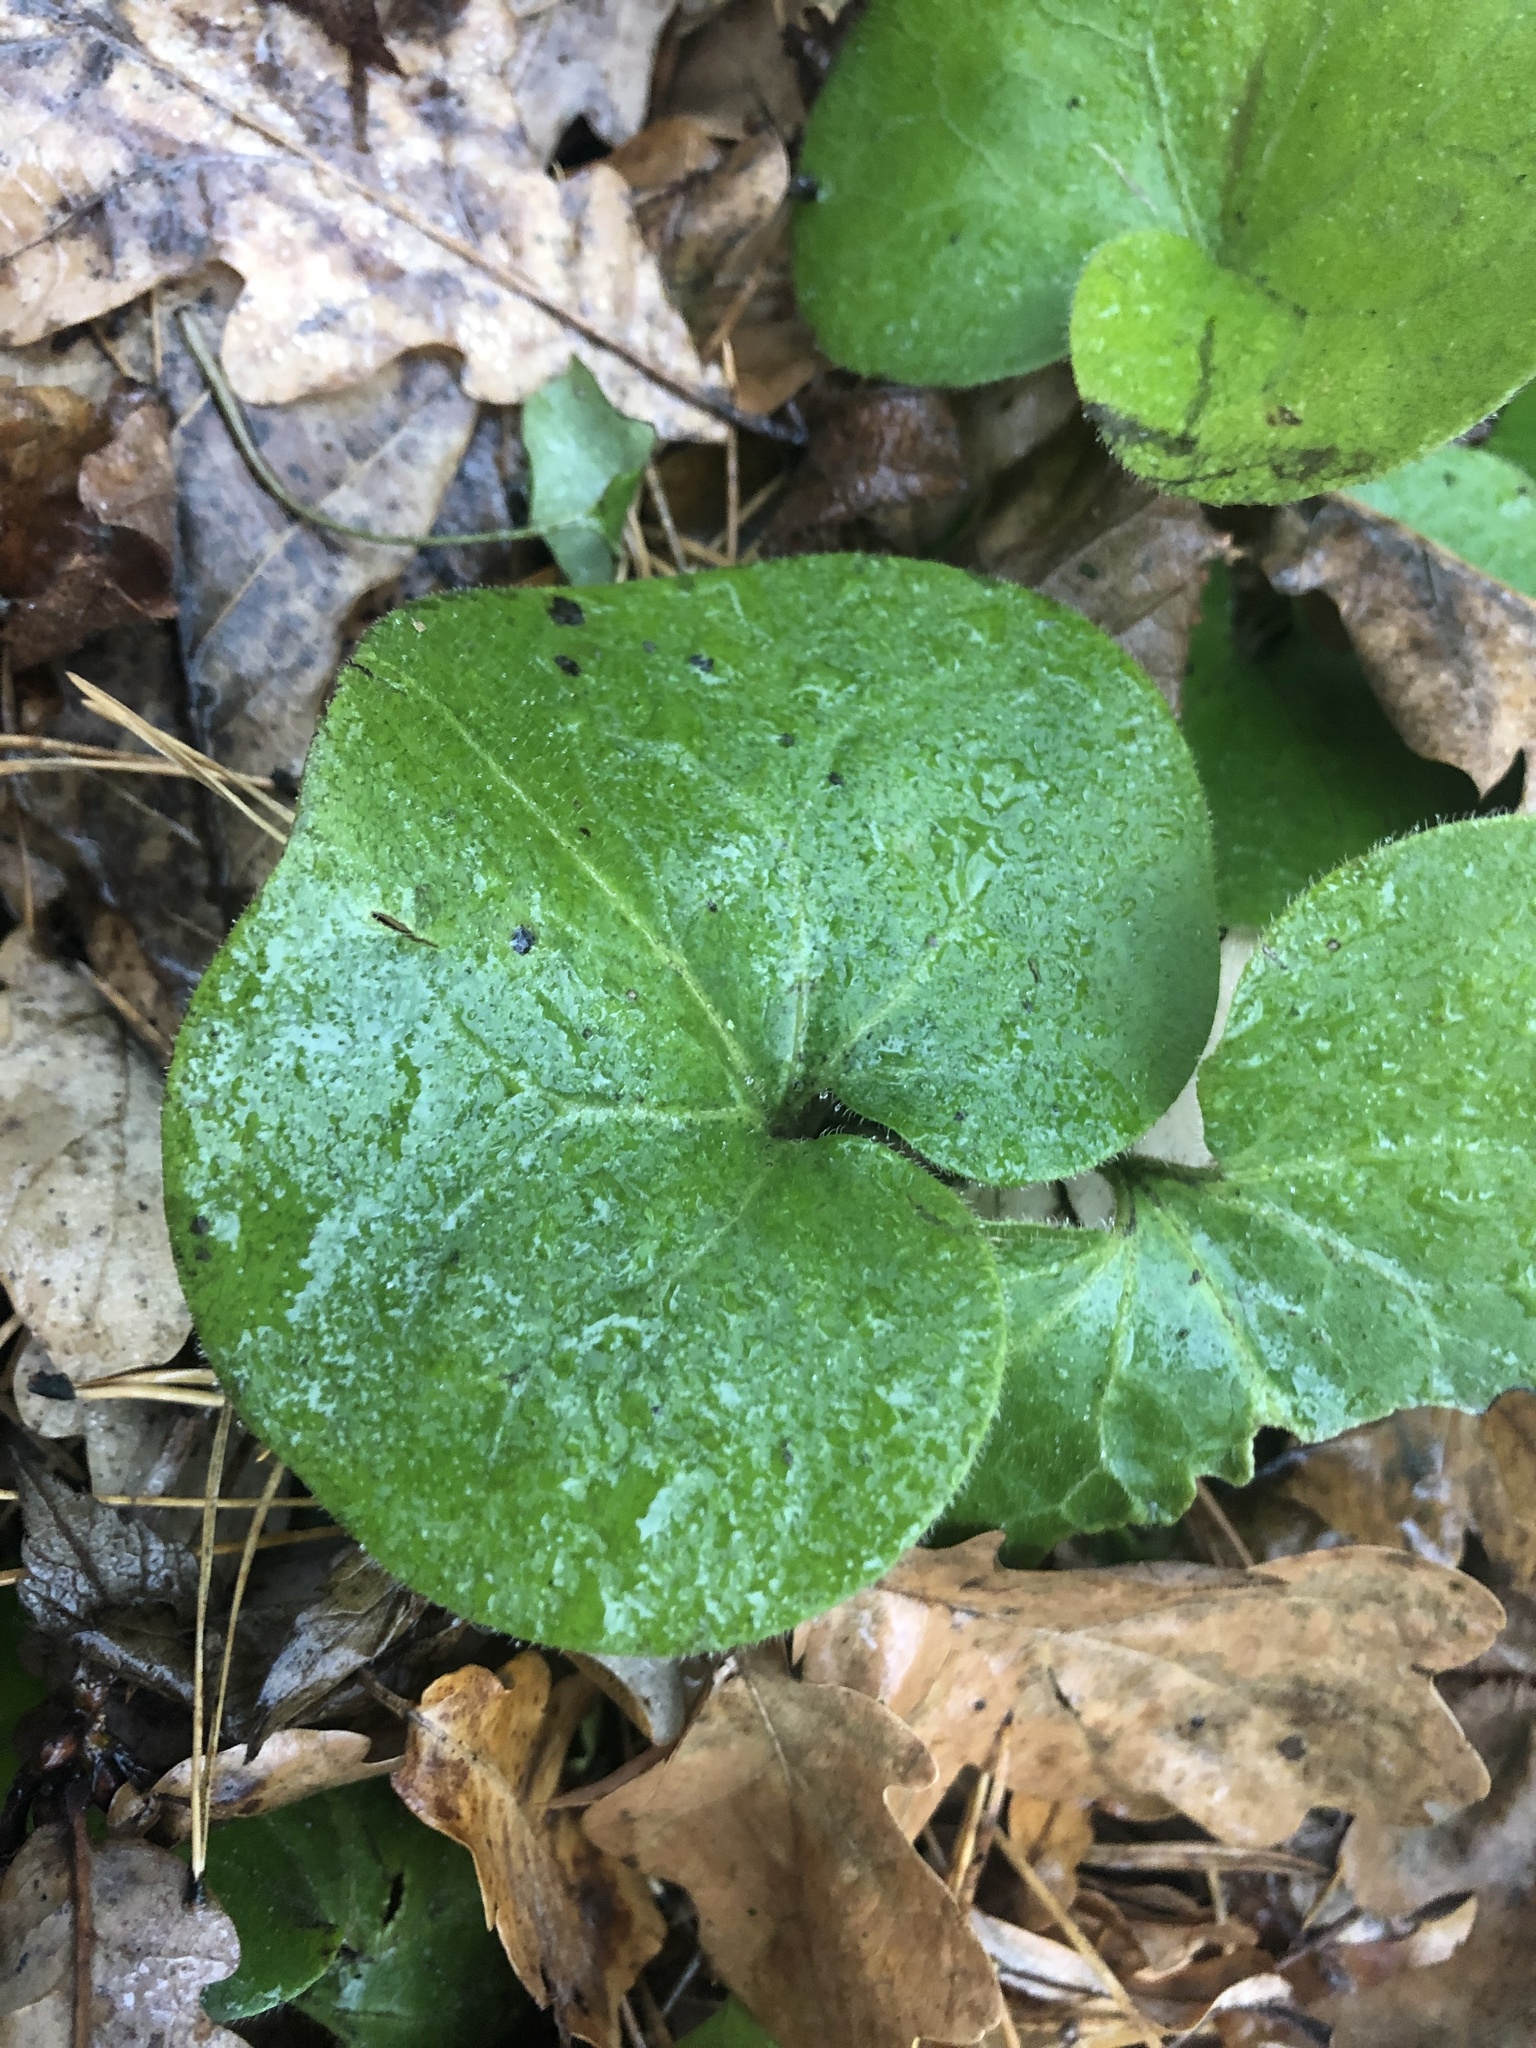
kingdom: Plantae
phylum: Tracheophyta
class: Magnoliopsida
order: Piperales
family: Aristolochiaceae
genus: Asarum
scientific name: Asarum europaeum
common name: Asarabacca
